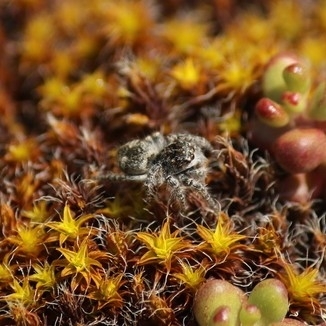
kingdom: Animalia
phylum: Arthropoda
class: Arachnida
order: Araneae
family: Salticidae
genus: Philaeus
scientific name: Philaeus chrysops
